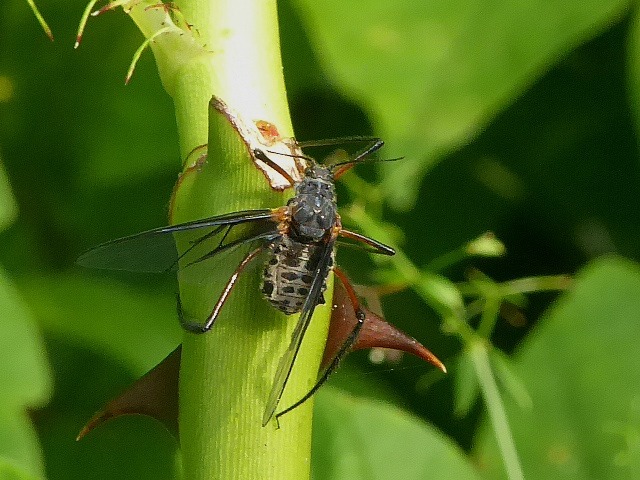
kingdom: Animalia
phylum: Arthropoda
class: Insecta
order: Hemiptera
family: Aphididae
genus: Longistigma
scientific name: Longistigma caryae
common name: Giant bark aphid
